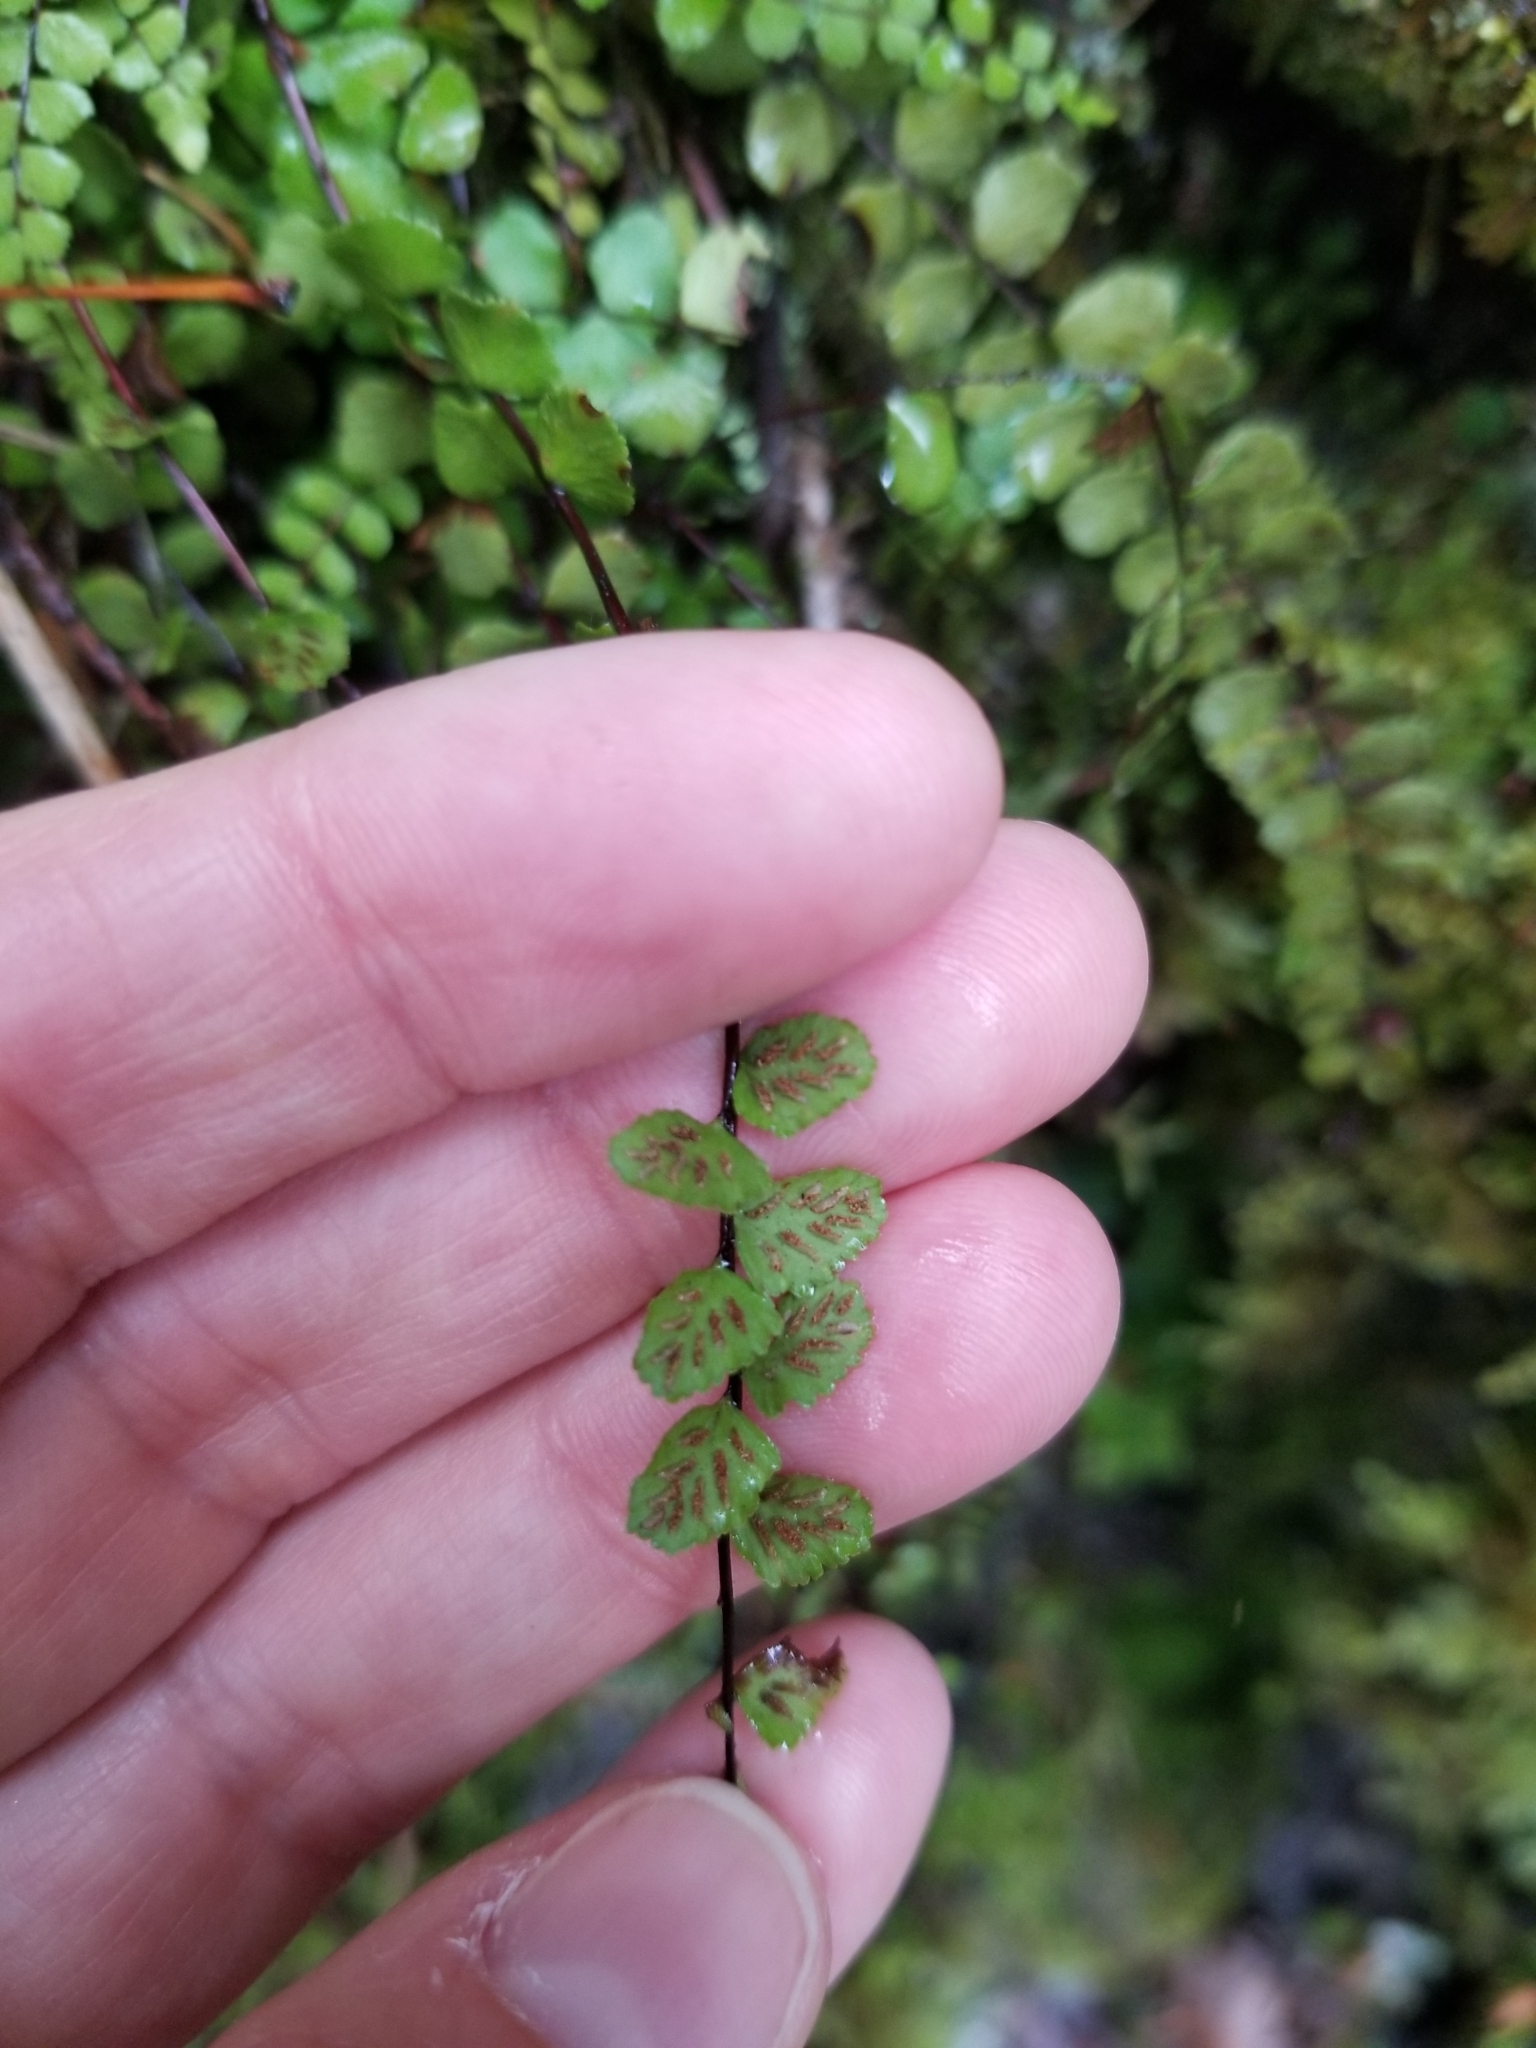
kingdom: Plantae
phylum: Tracheophyta
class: Polypodiopsida
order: Polypodiales
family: Aspleniaceae
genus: Asplenium
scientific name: Asplenium trichomanes
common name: Maidenhair spleenwort
